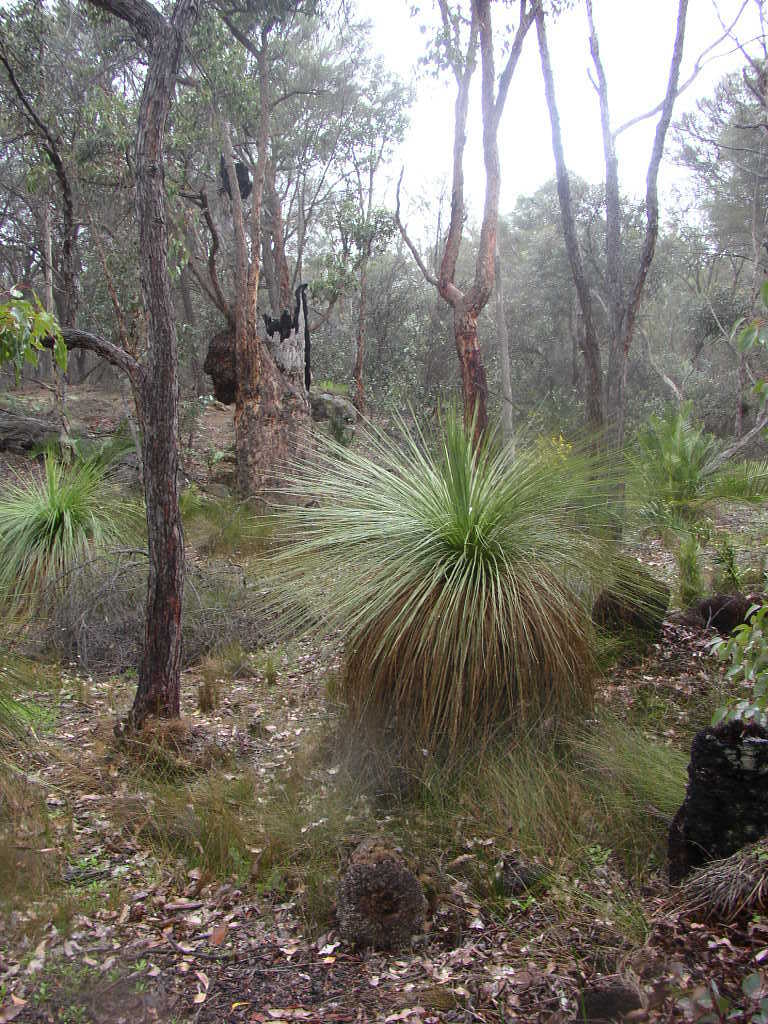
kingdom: Plantae
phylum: Tracheophyta
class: Liliopsida
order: Asparagales
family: Asphodelaceae
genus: Xanthorrhoea
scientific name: Xanthorrhoea preissii
